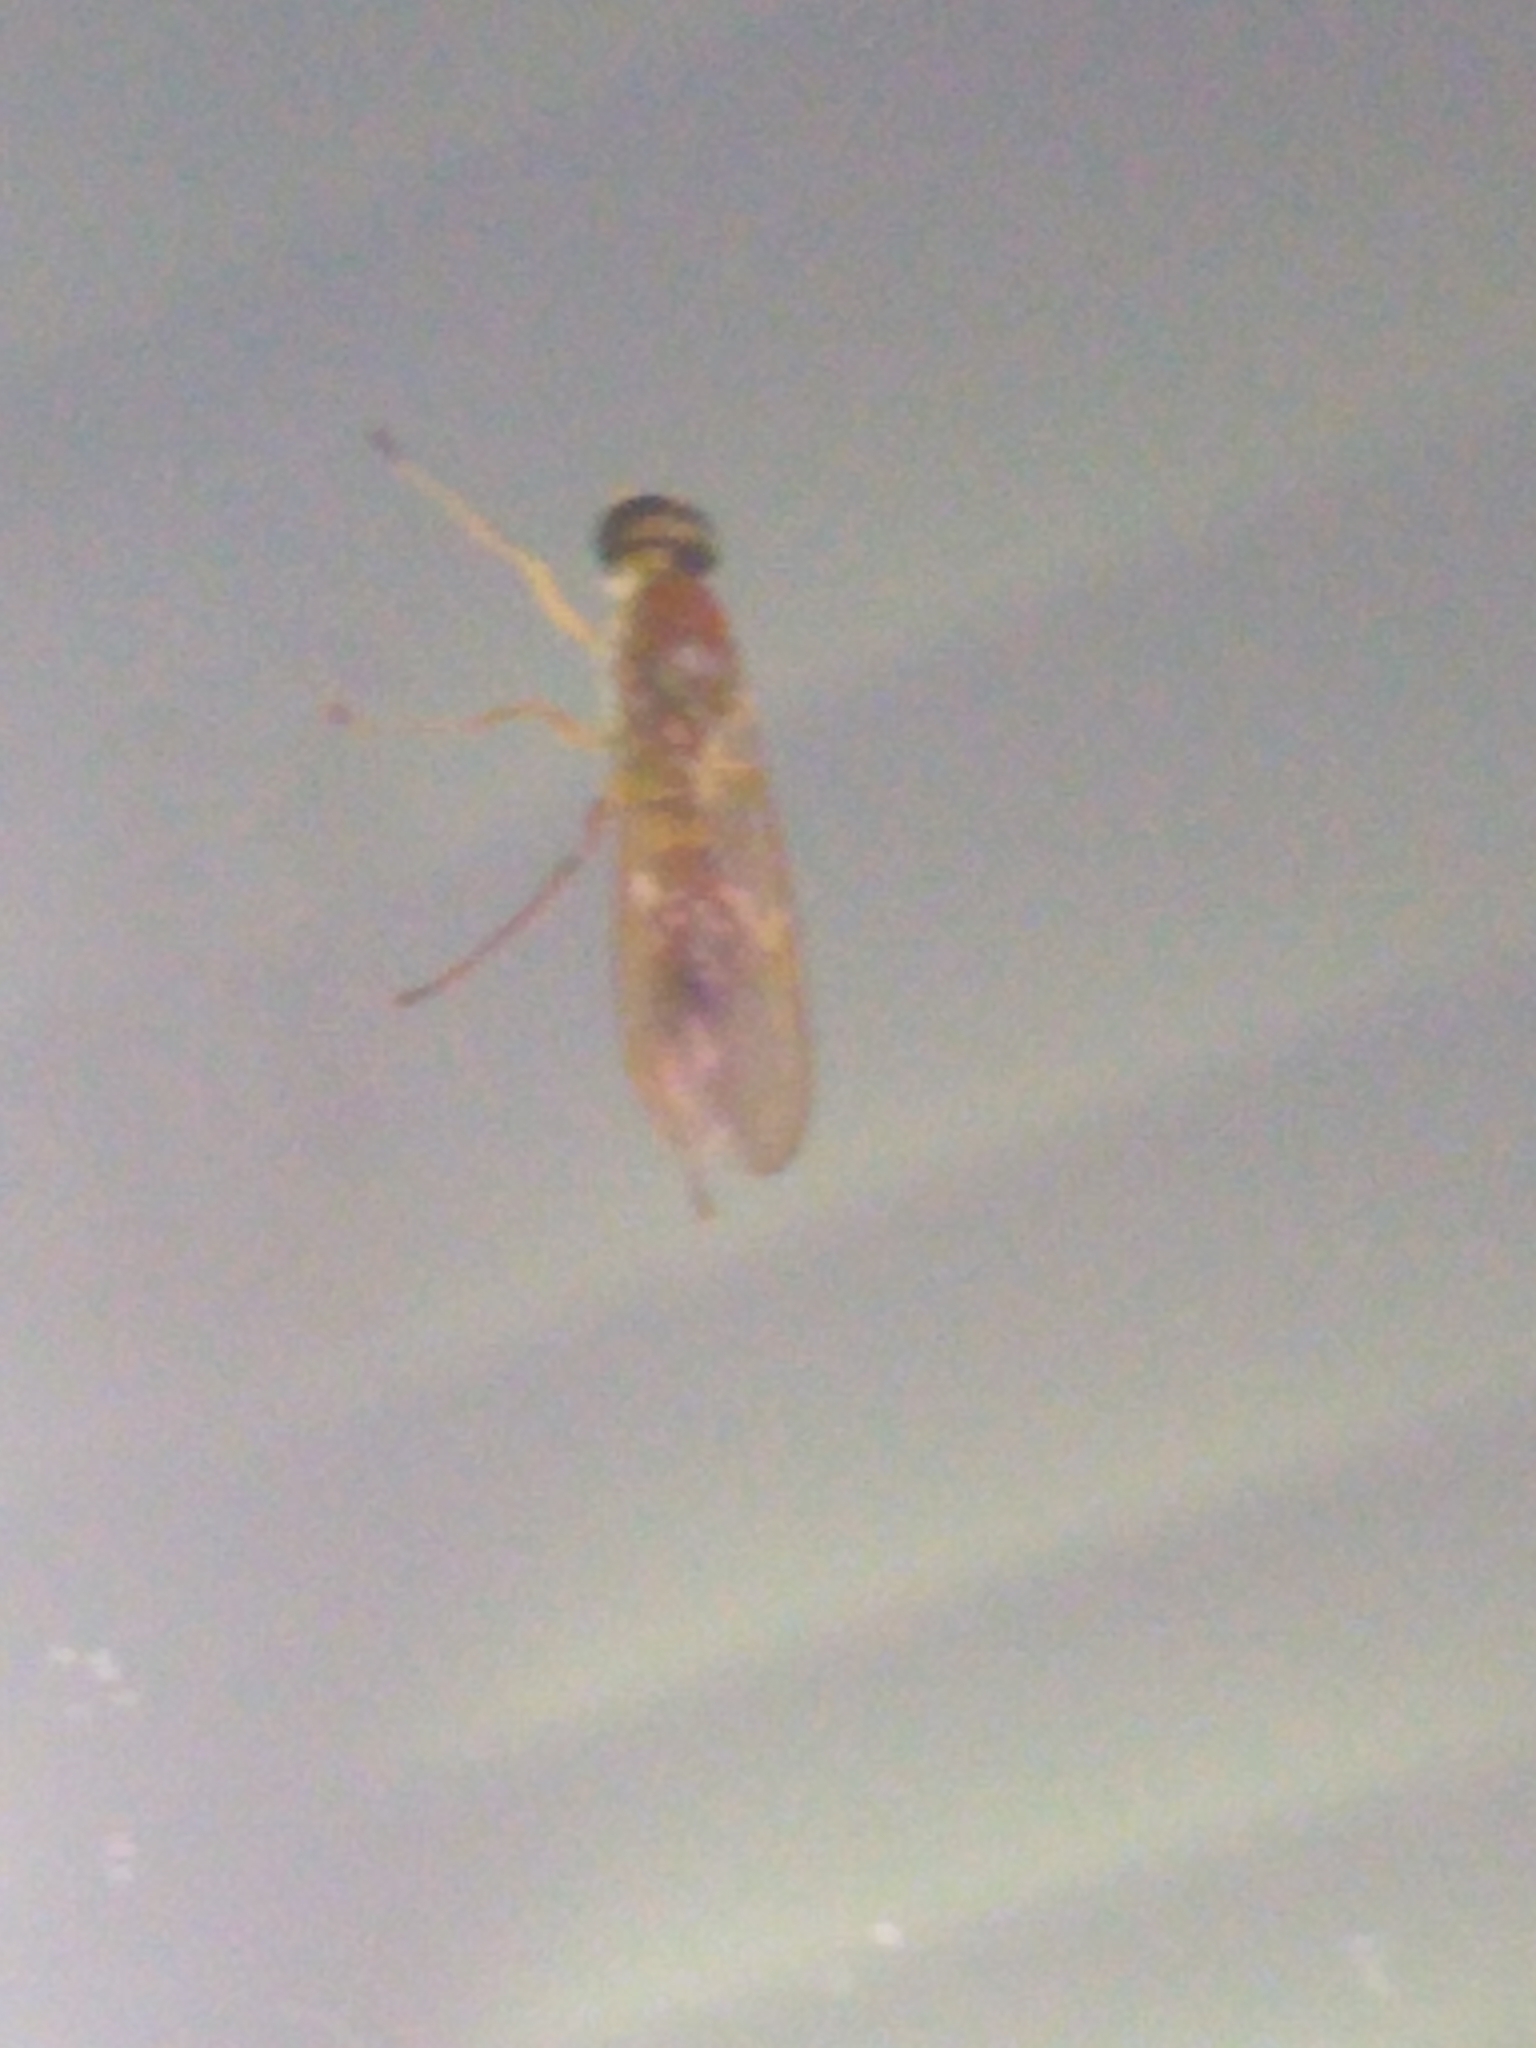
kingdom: Animalia
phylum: Arthropoda
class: Insecta
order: Diptera
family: Stratiomyidae
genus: Ptecticus
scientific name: Ptecticus trivittatus
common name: Compost fly
